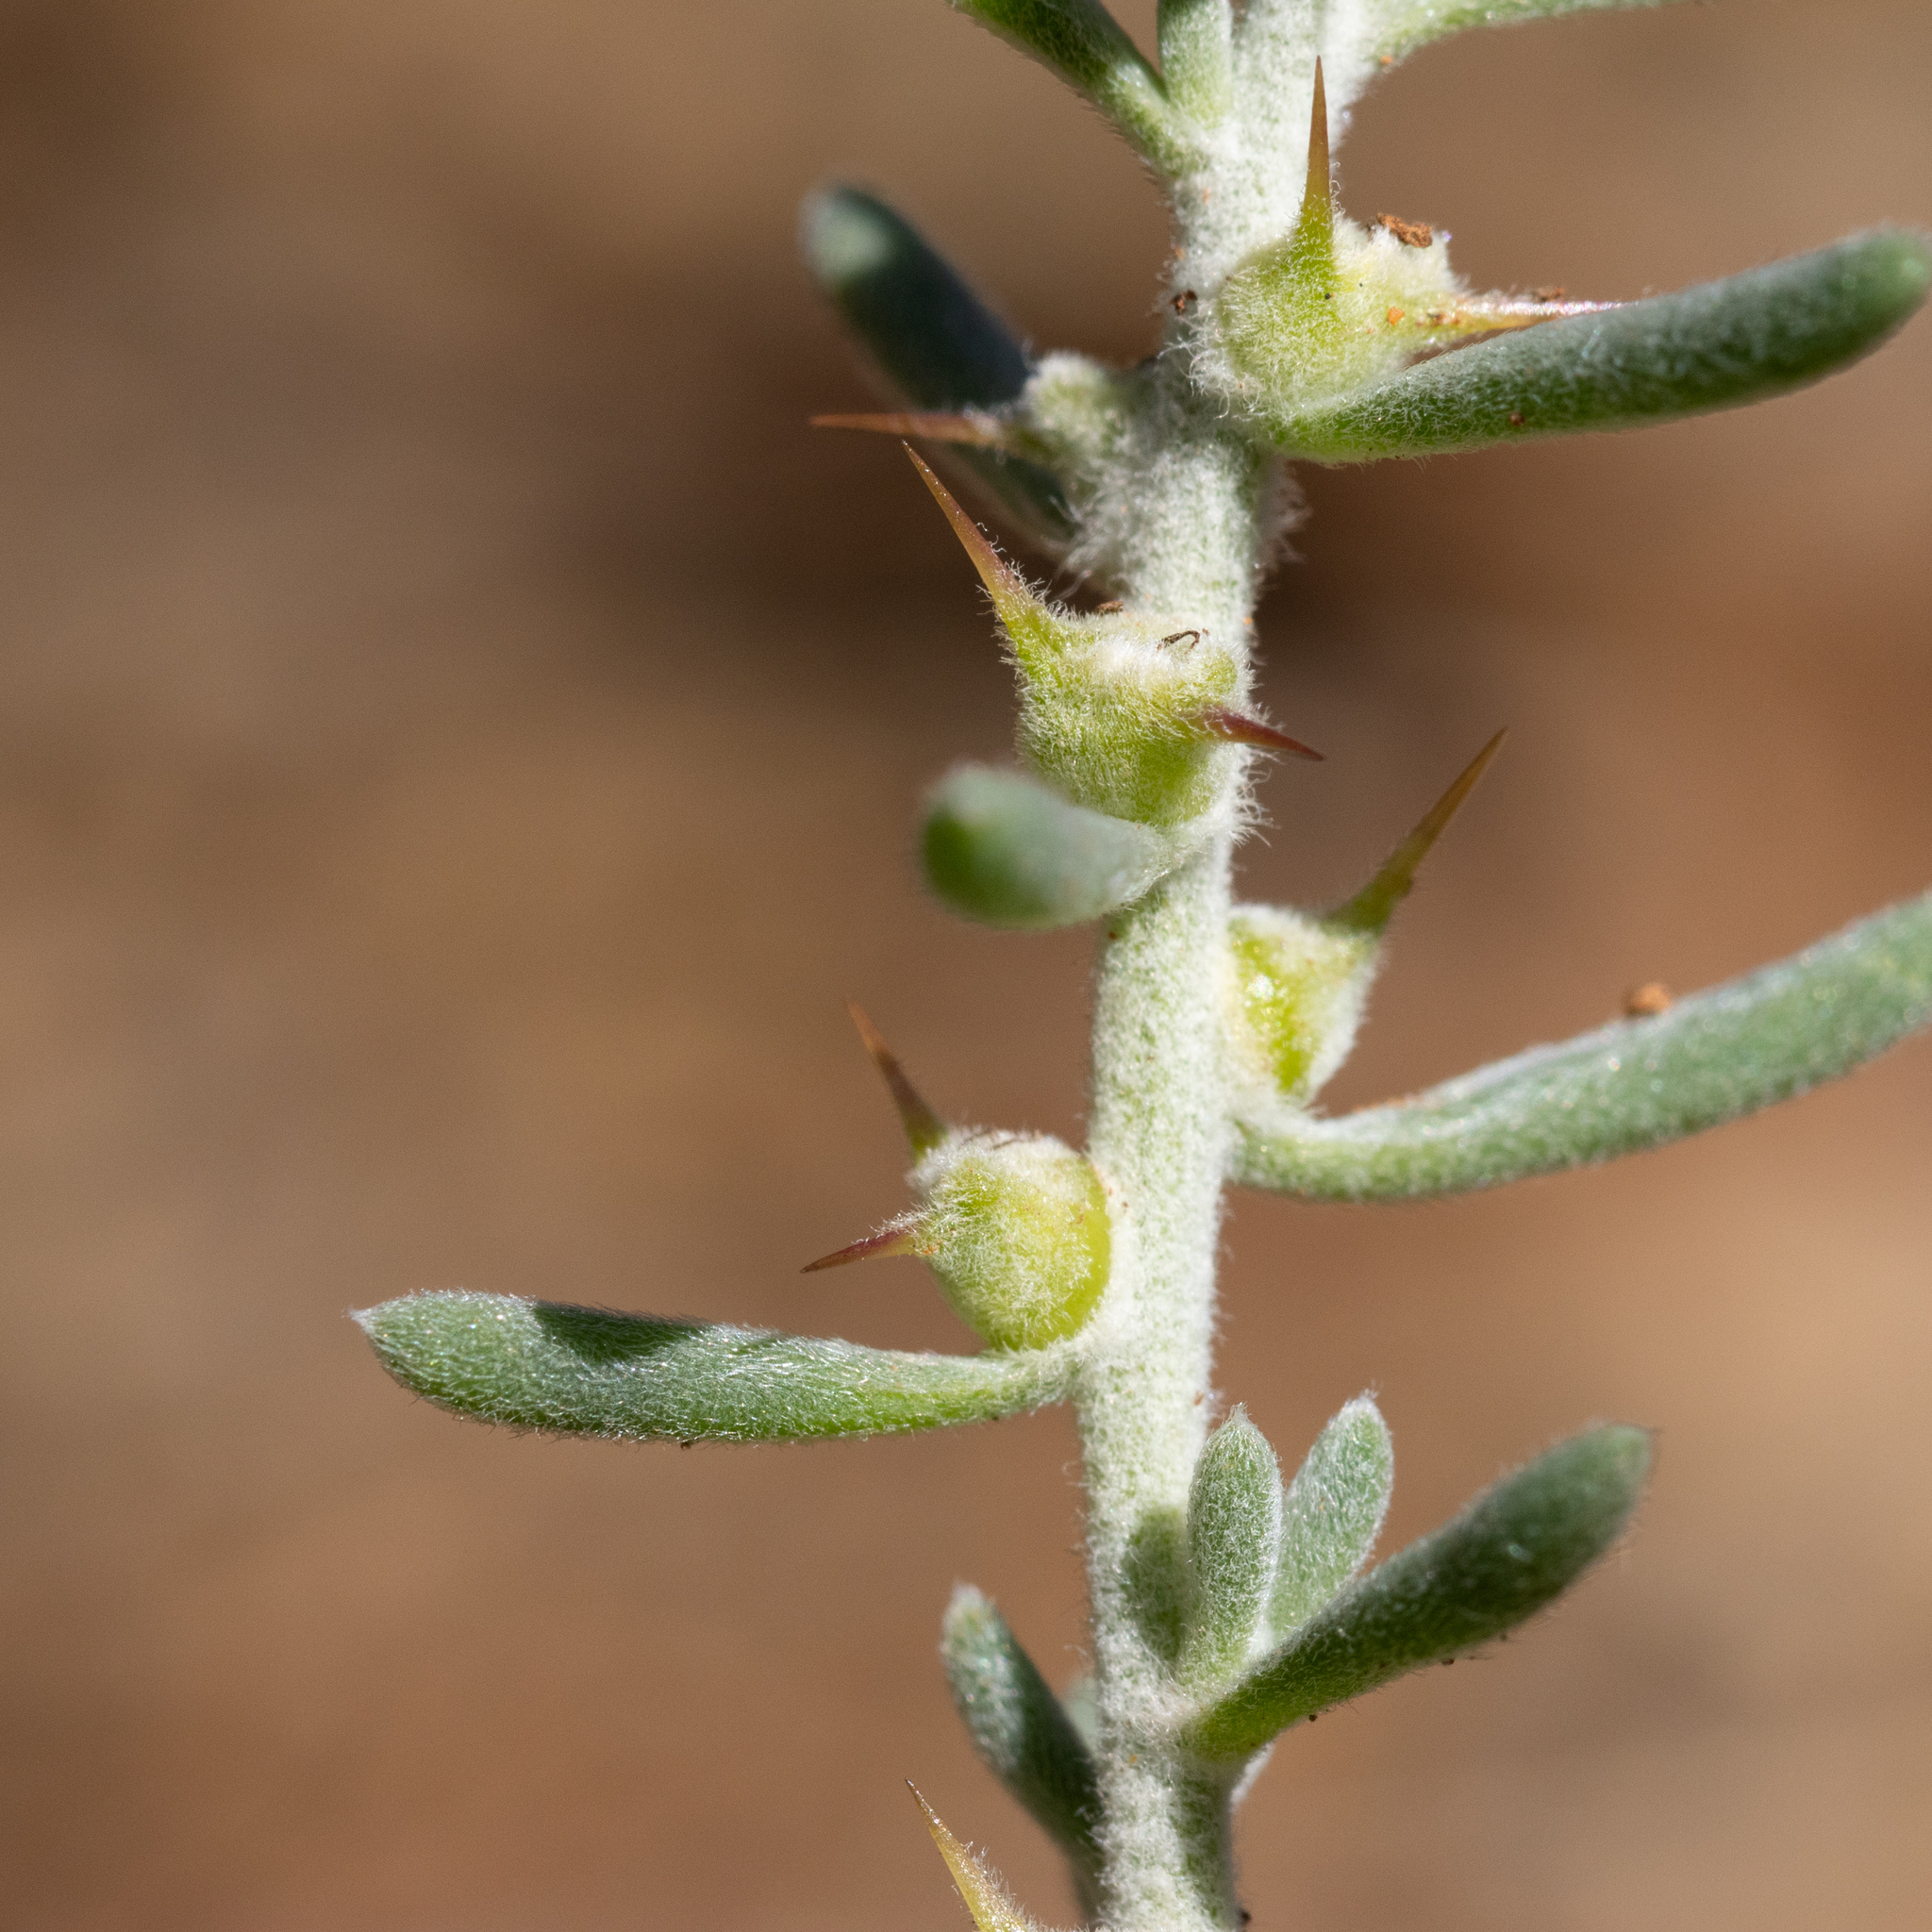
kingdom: Plantae
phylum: Tracheophyta
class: Magnoliopsida
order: Caryophyllales
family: Amaranthaceae
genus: Sclerolaena
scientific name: Sclerolaena diacantha
